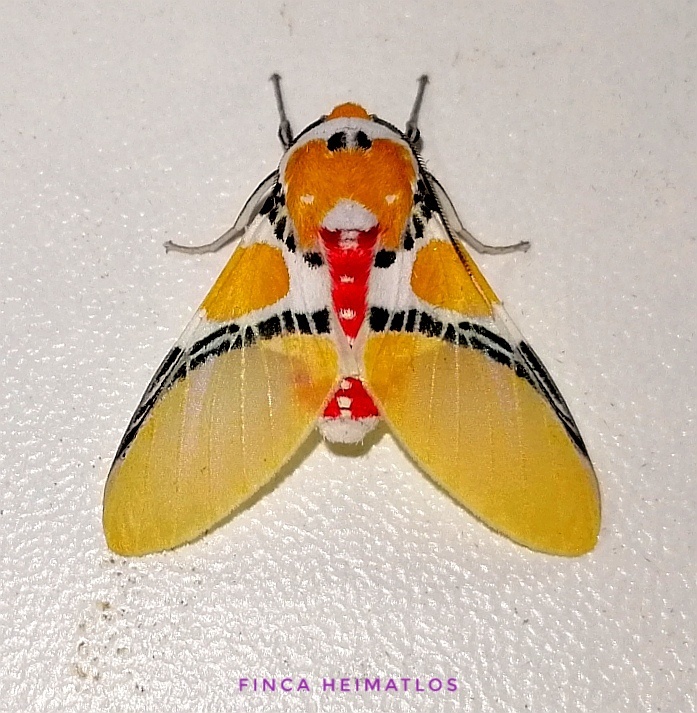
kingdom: Animalia
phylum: Arthropoda
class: Insecta
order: Lepidoptera
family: Erebidae
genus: Idalus
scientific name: Idalus critheis
